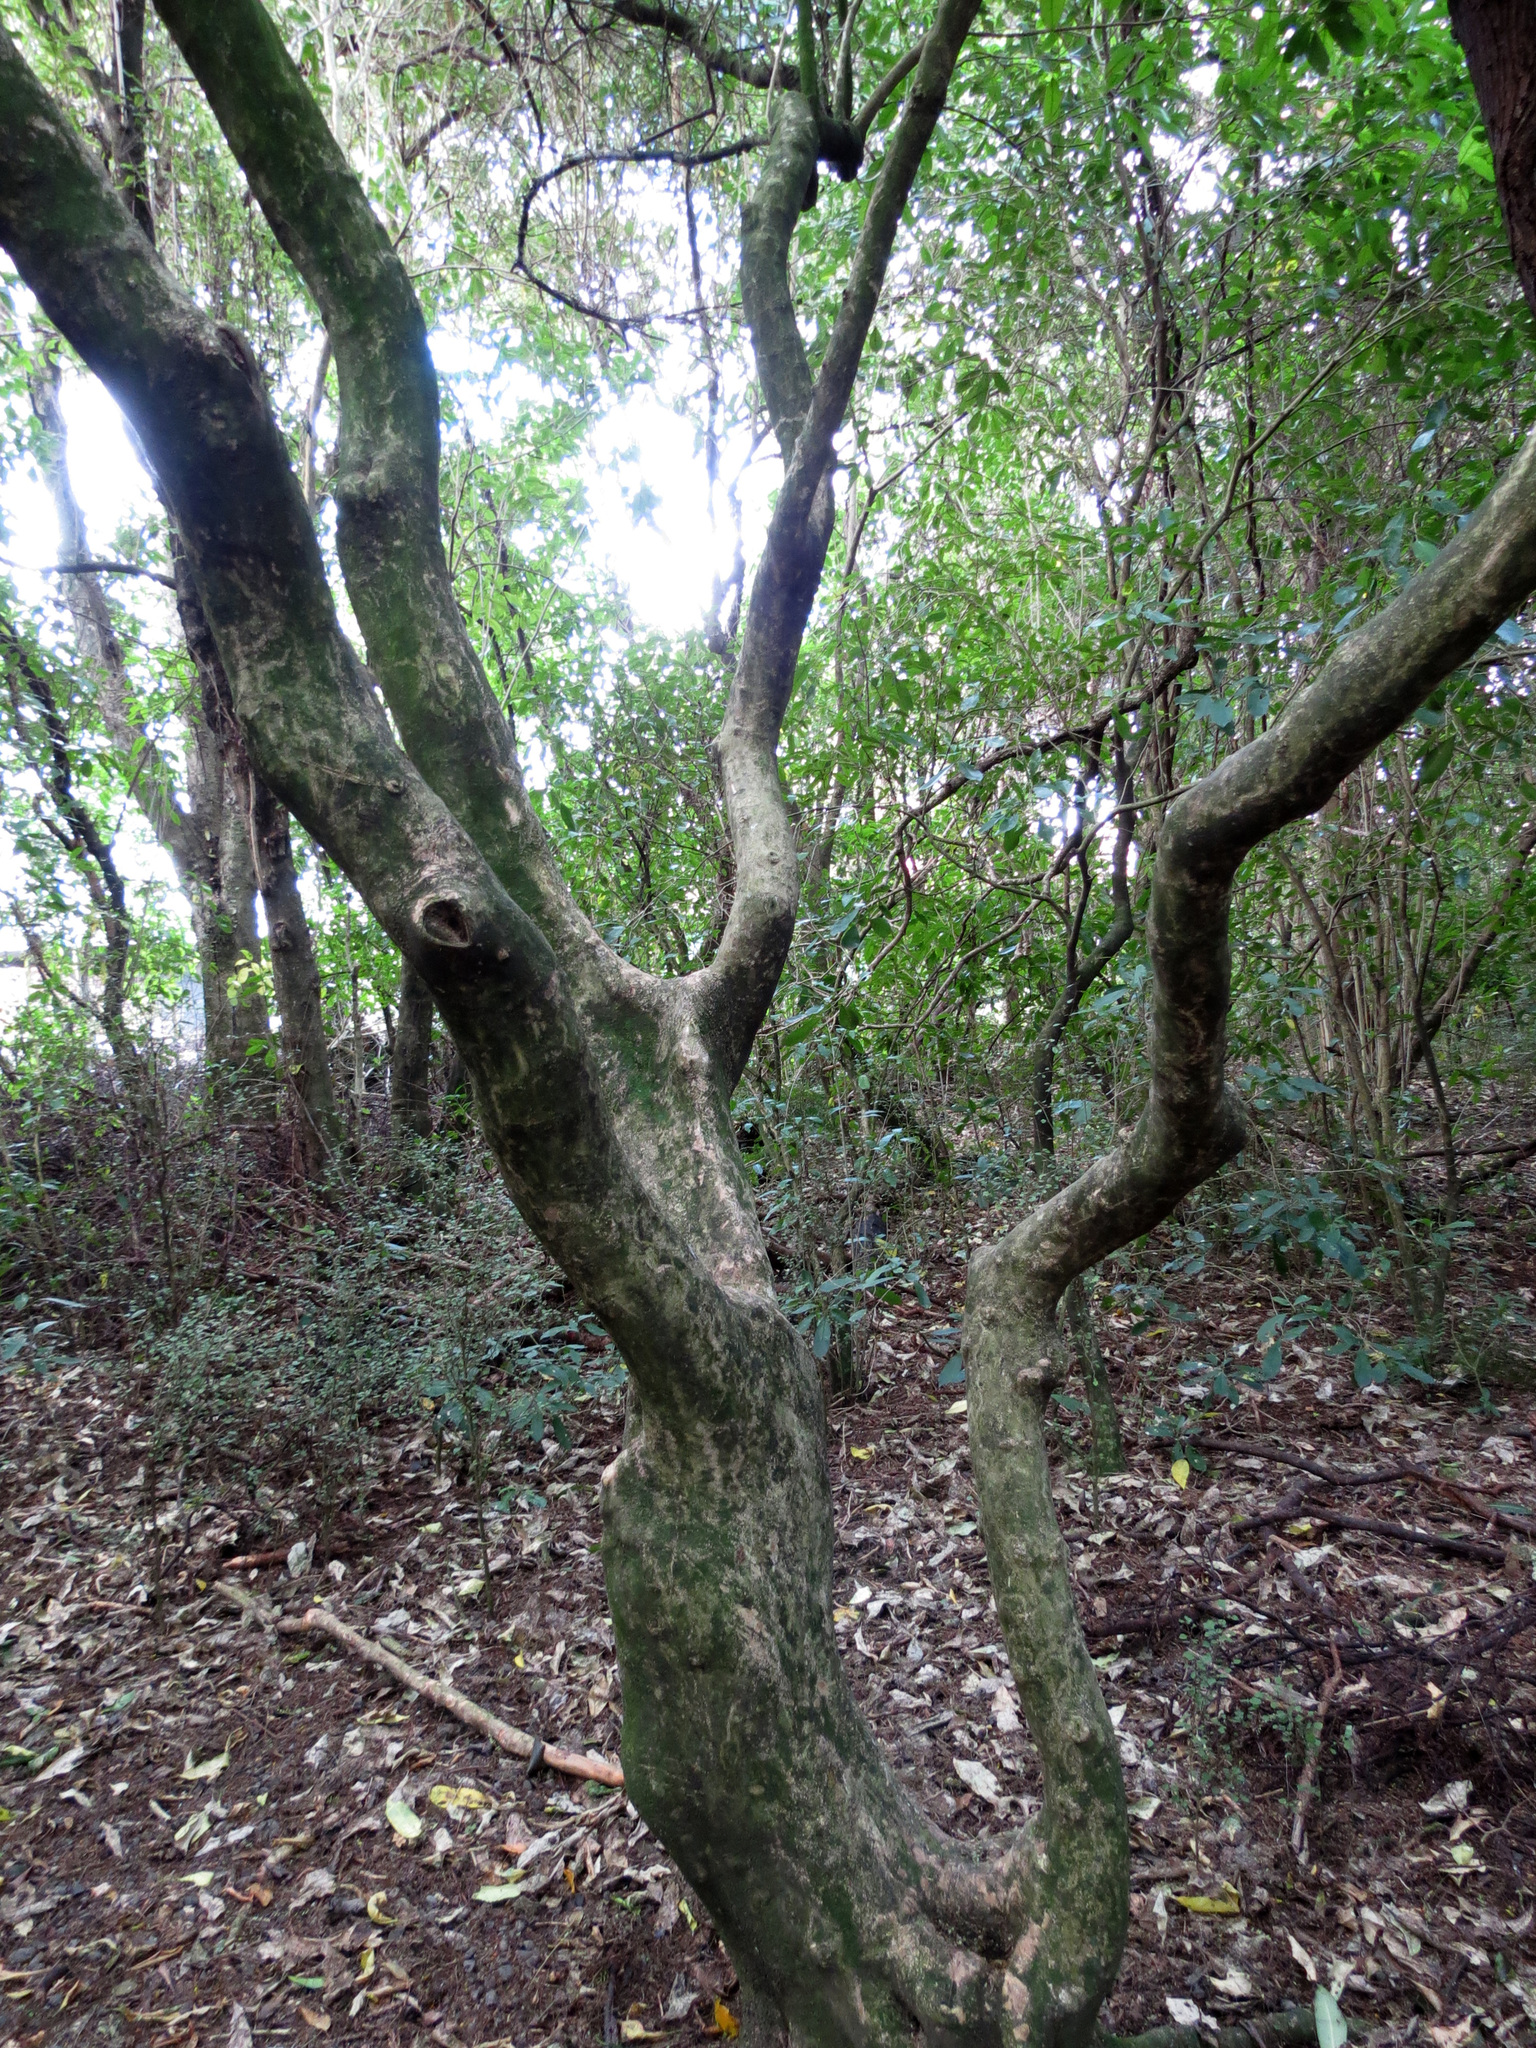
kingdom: Plantae
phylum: Tracheophyta
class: Magnoliopsida
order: Malpighiales
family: Violaceae
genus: Melicytus
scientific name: Melicytus ramiflorus
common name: Mahoe
